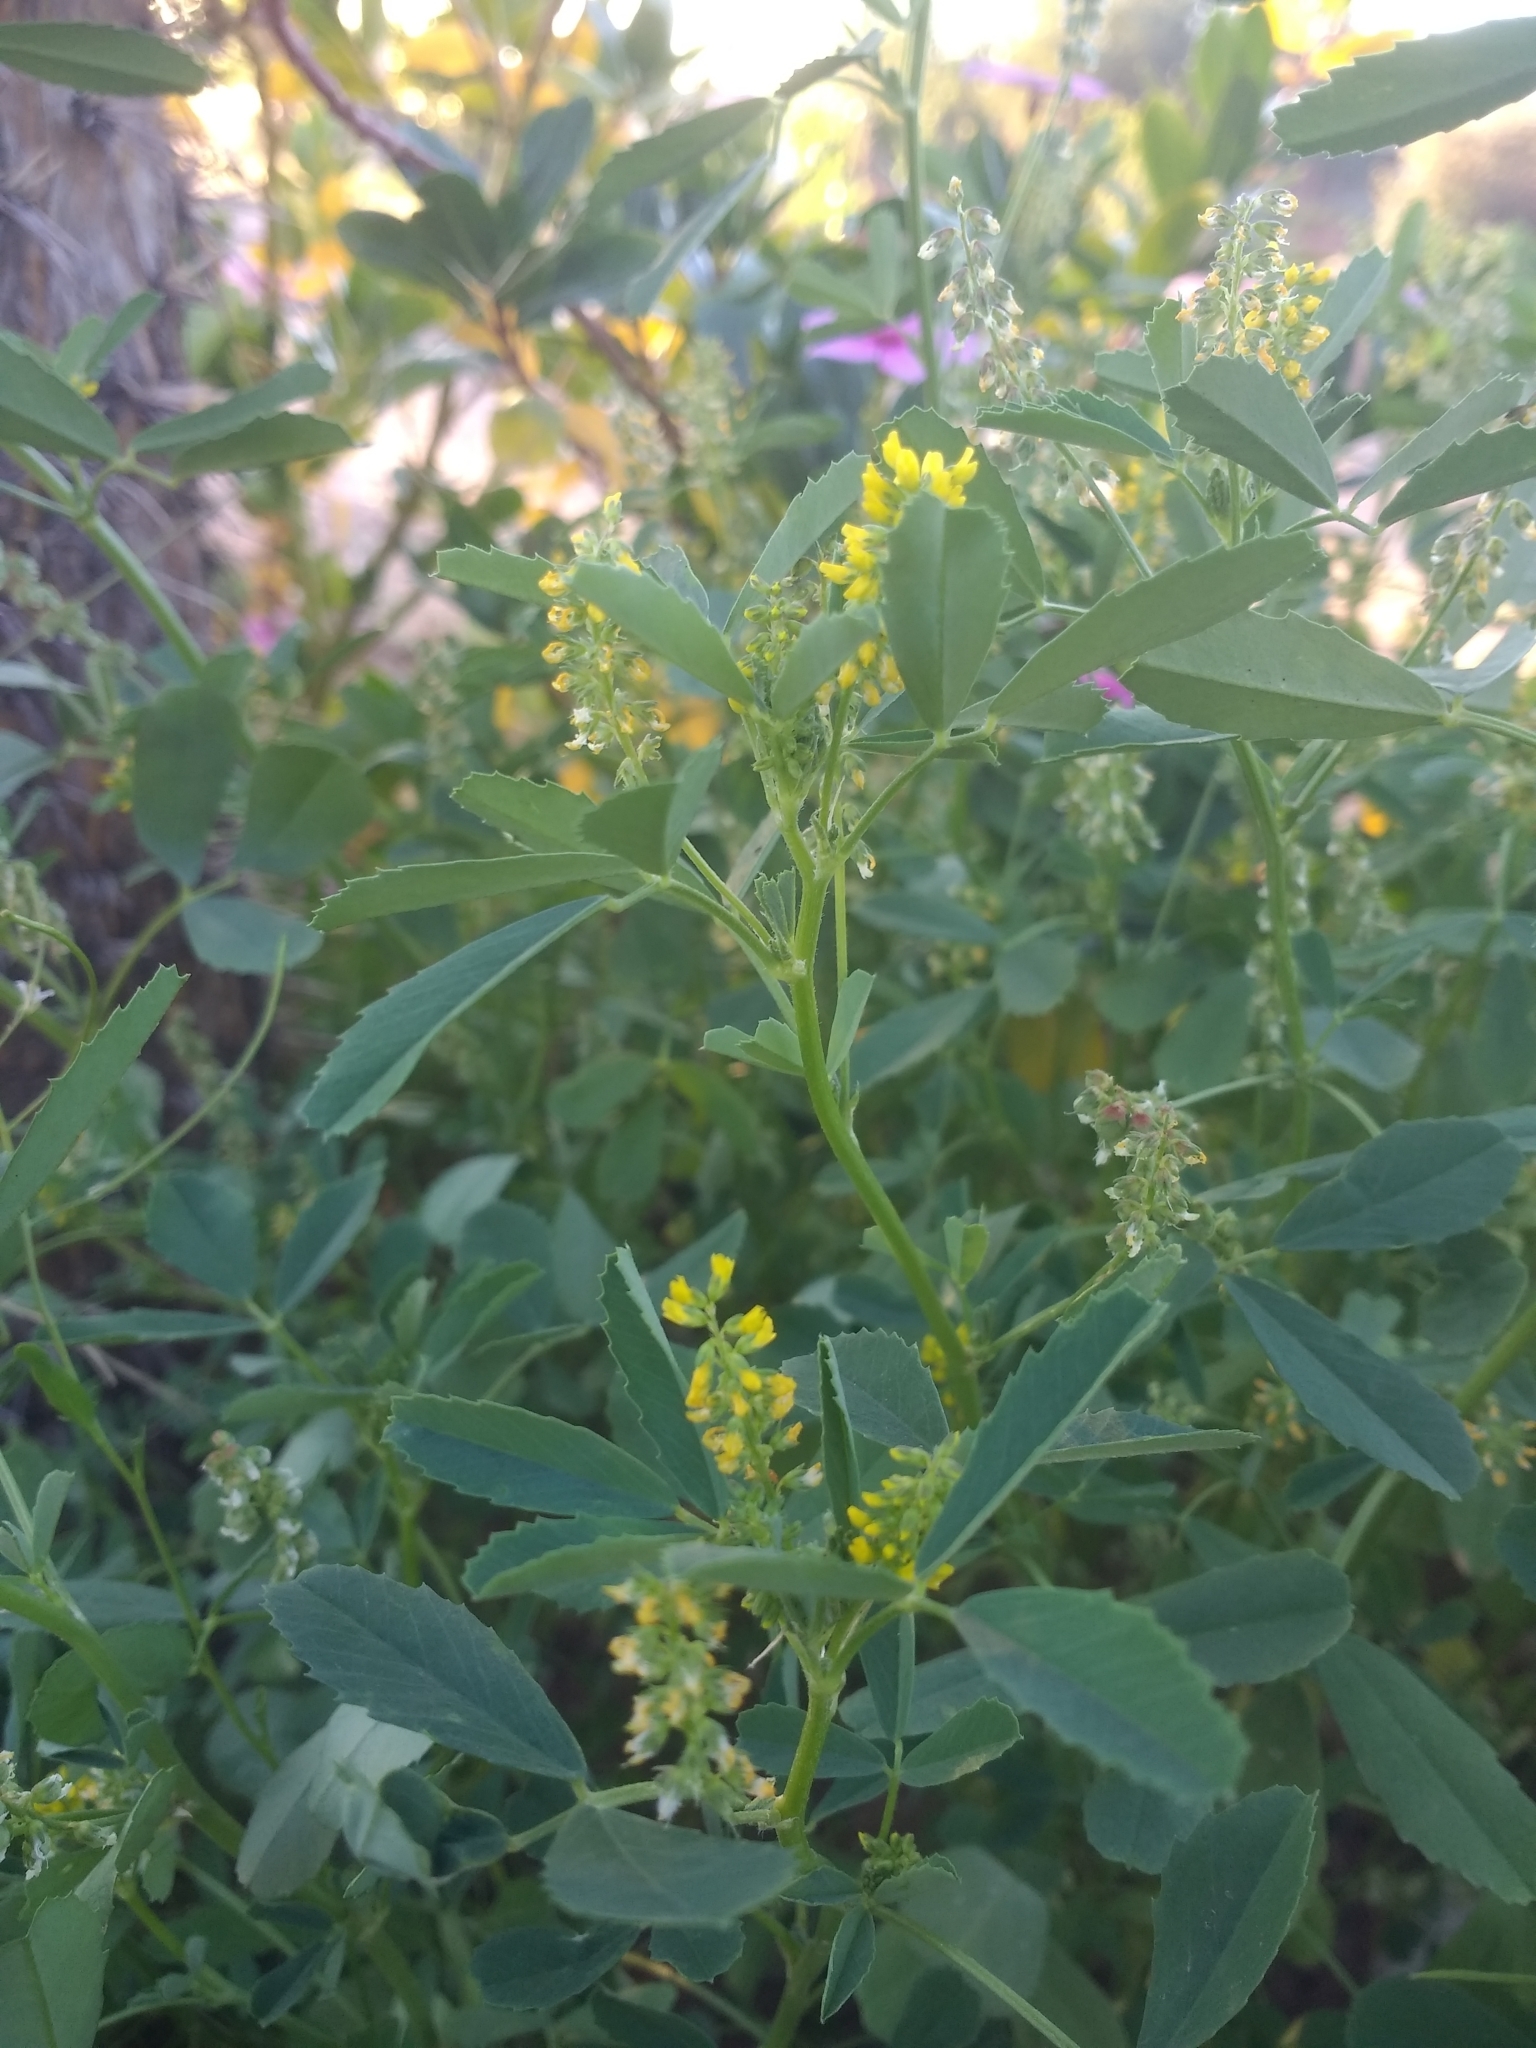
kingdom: Plantae
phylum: Tracheophyta
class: Magnoliopsida
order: Fabales
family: Fabaceae
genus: Melilotus
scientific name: Melilotus indicus
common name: Small melilot
